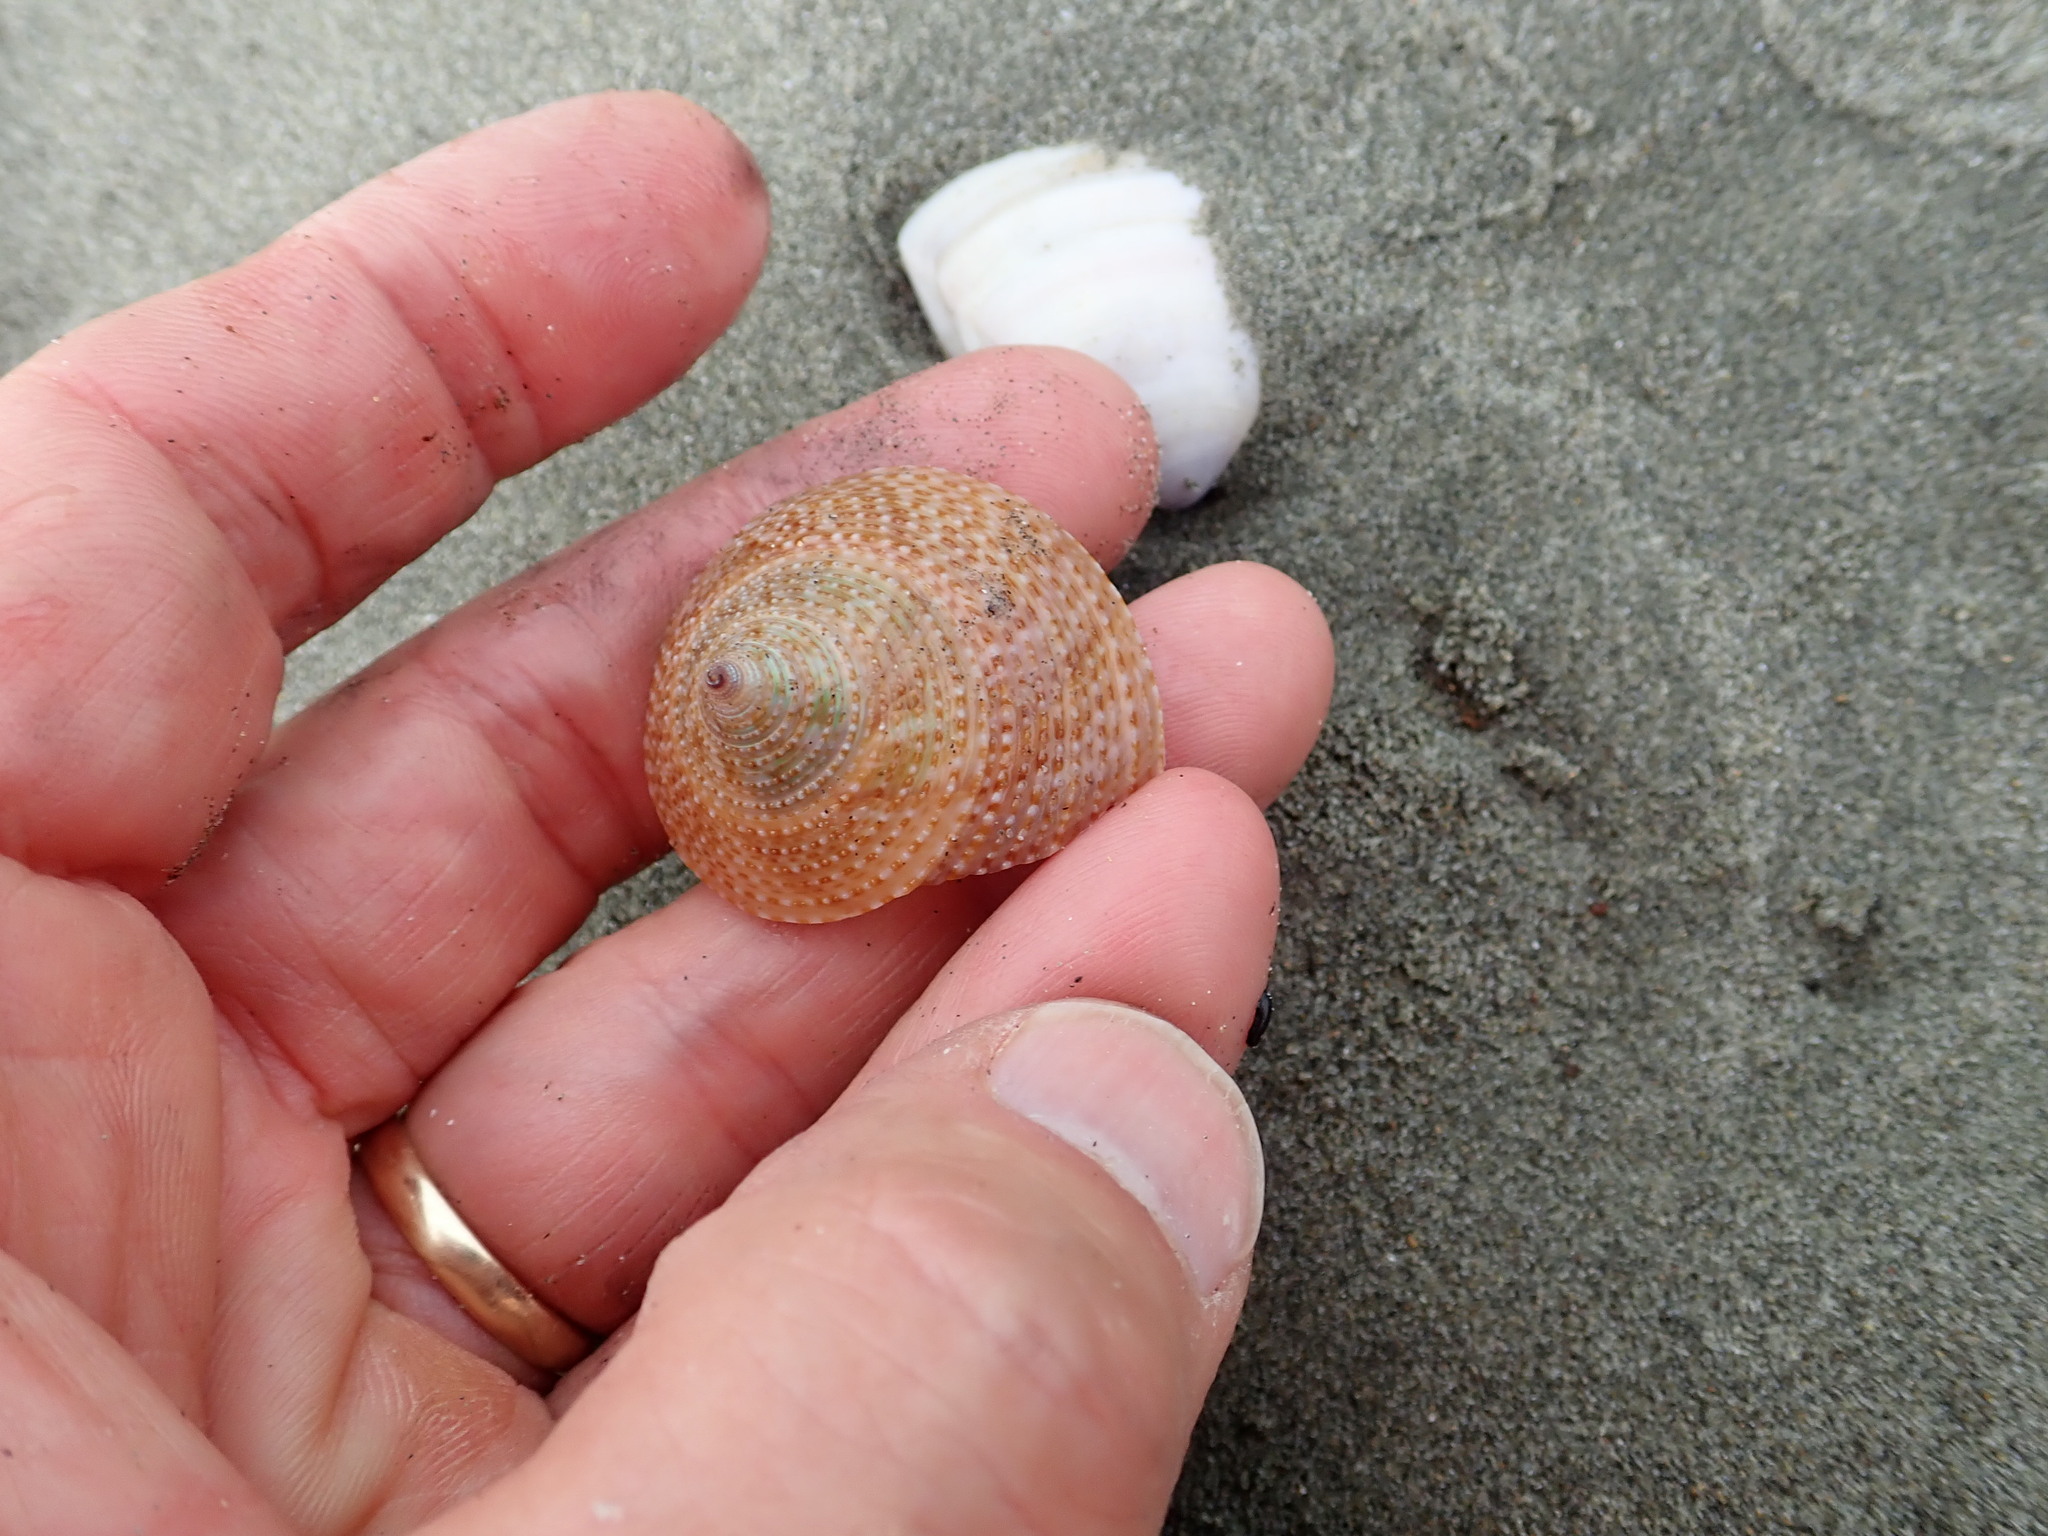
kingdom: Animalia
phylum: Mollusca
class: Gastropoda
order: Trochida
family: Calliostomatidae
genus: Maurea
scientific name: Maurea selecta
